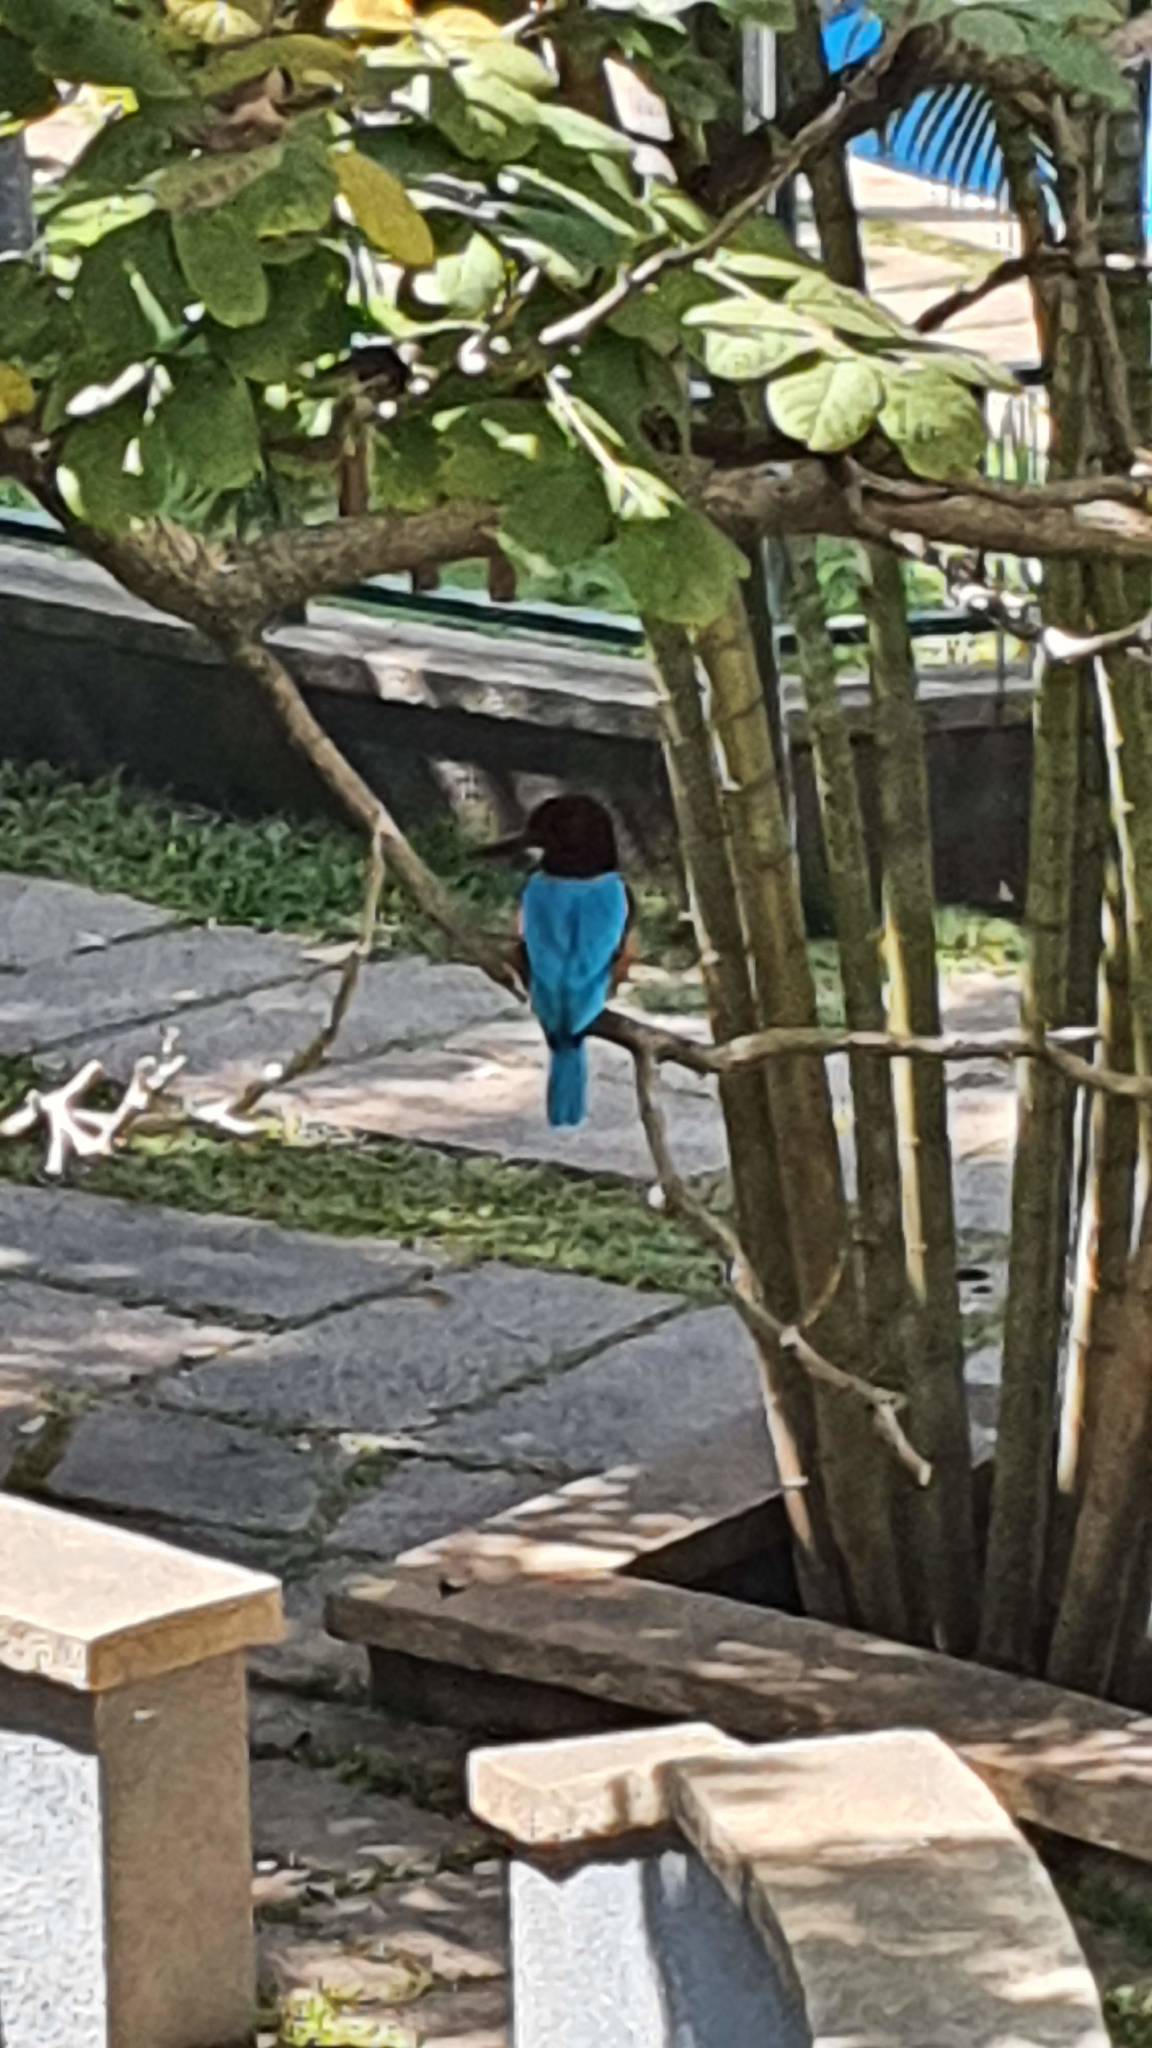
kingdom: Animalia
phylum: Chordata
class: Aves
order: Coraciiformes
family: Alcedinidae
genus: Halcyon
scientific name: Halcyon smyrnensis
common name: White-throated kingfisher
